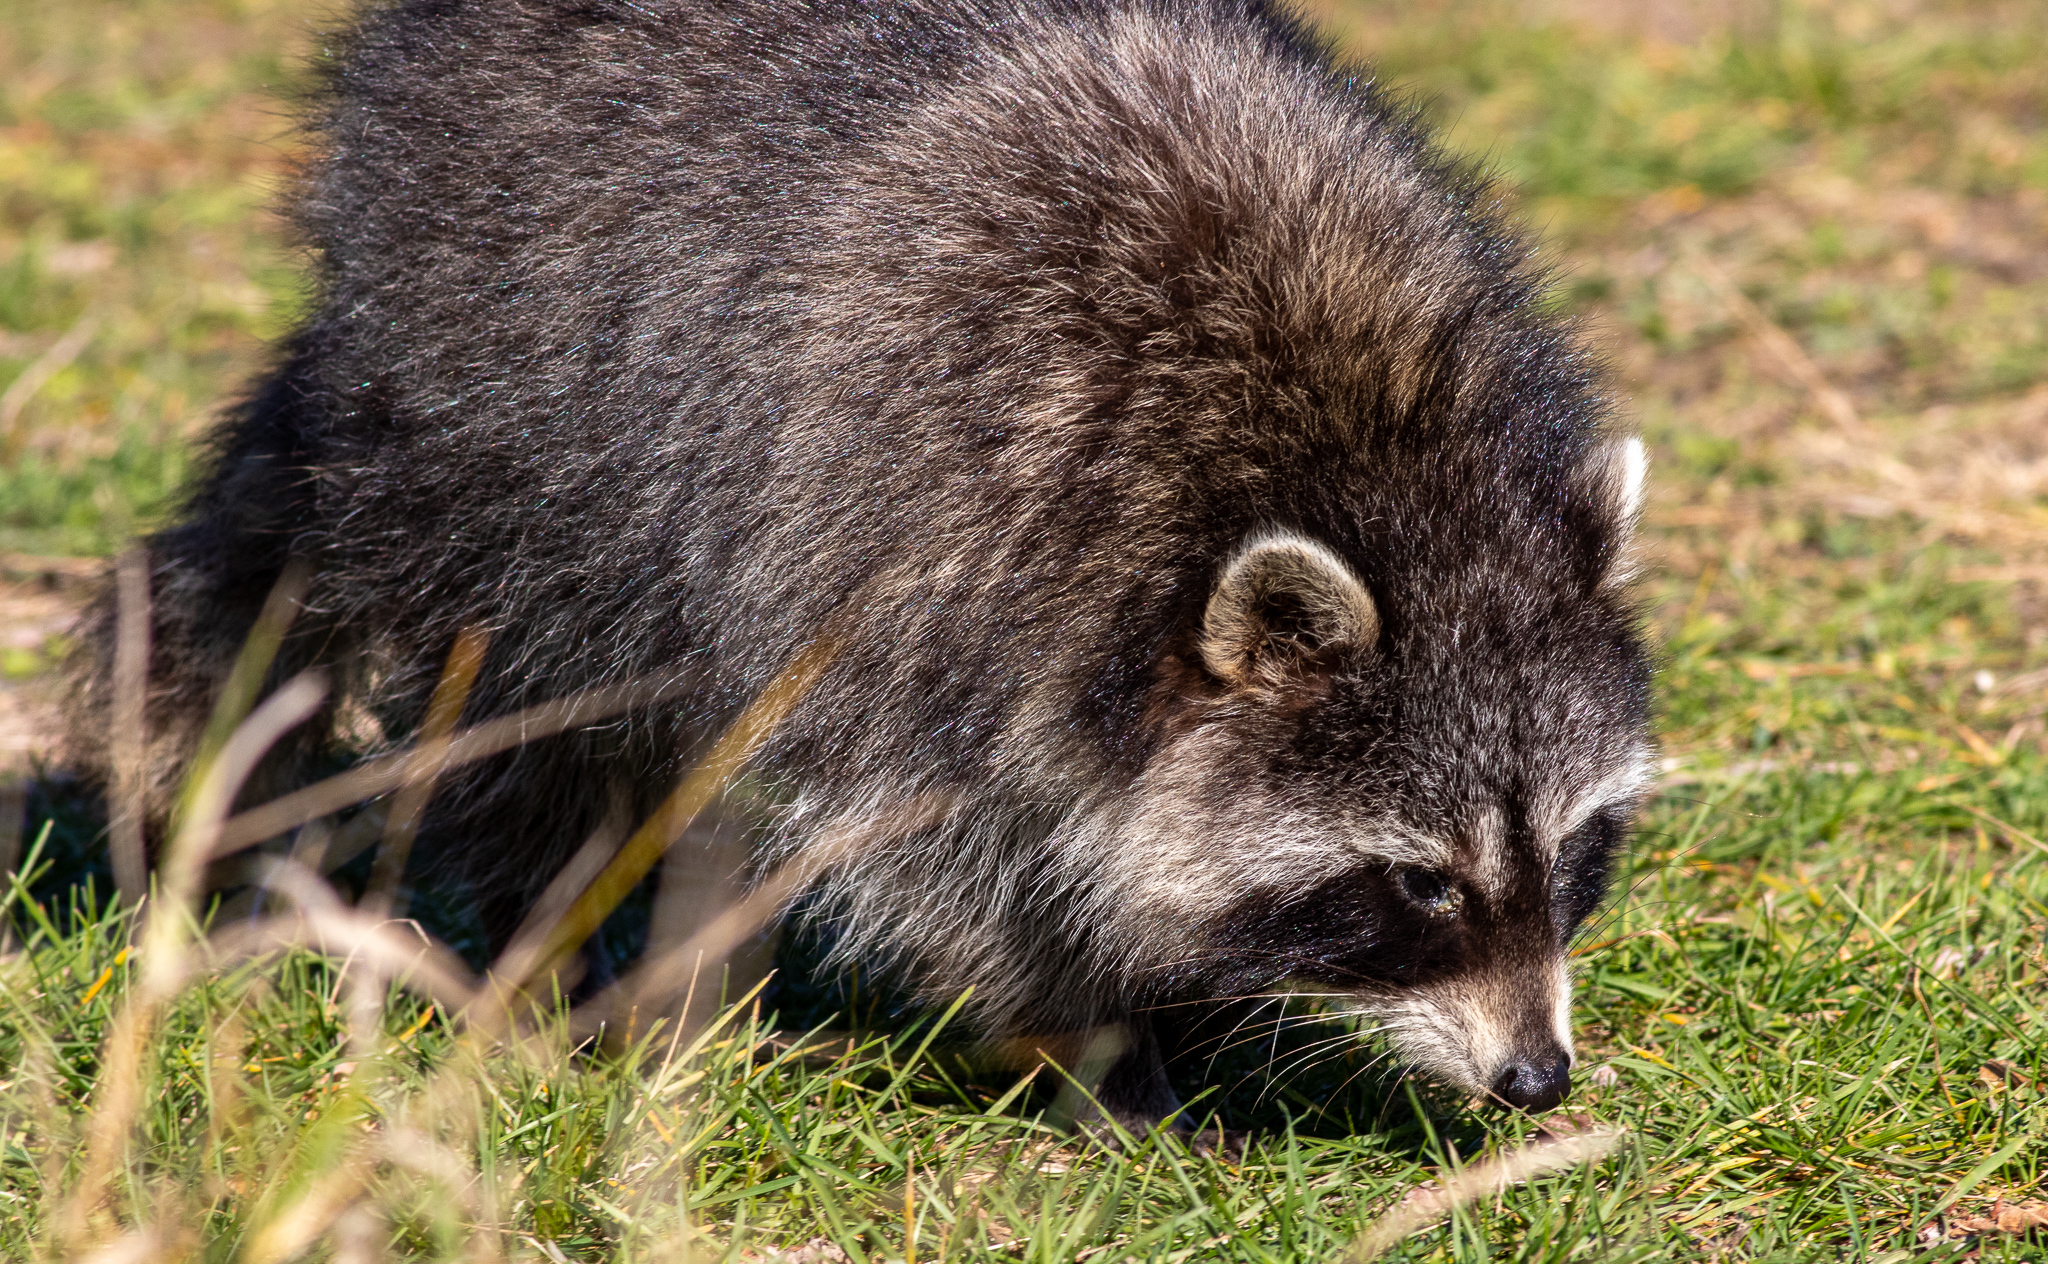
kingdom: Animalia
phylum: Chordata
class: Mammalia
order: Carnivora
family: Procyonidae
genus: Procyon
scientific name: Procyon lotor
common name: Raccoon
